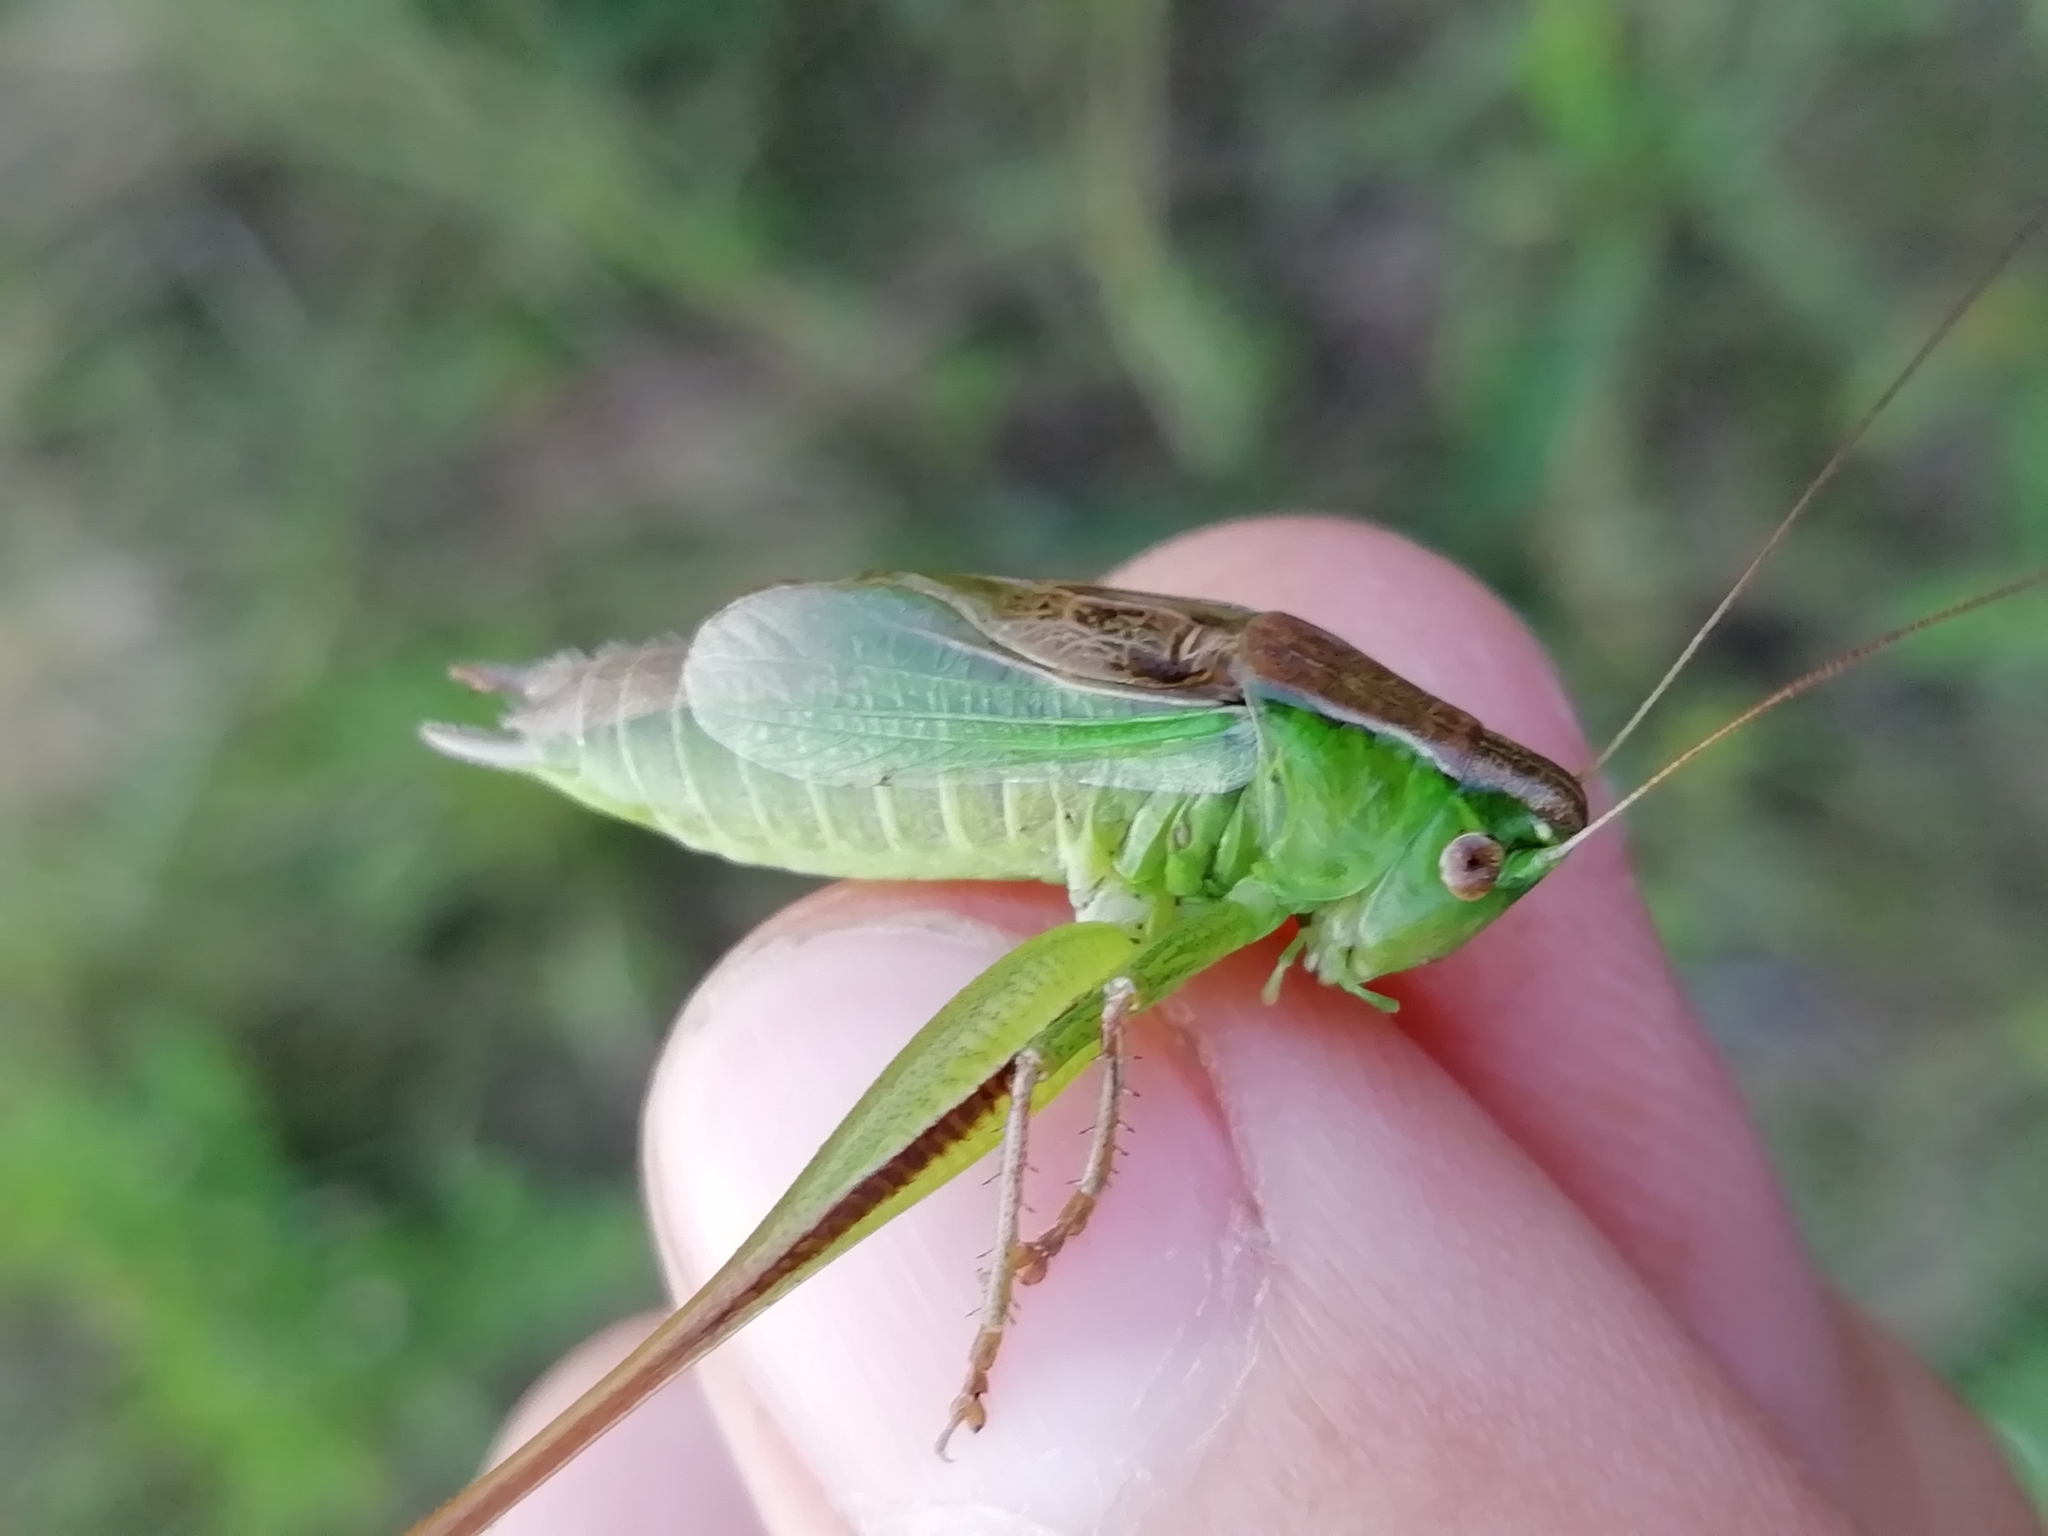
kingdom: Animalia
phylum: Arthropoda
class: Insecta
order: Orthoptera
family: Tettigoniidae
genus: Bicolorana
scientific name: Bicolorana bicolor
